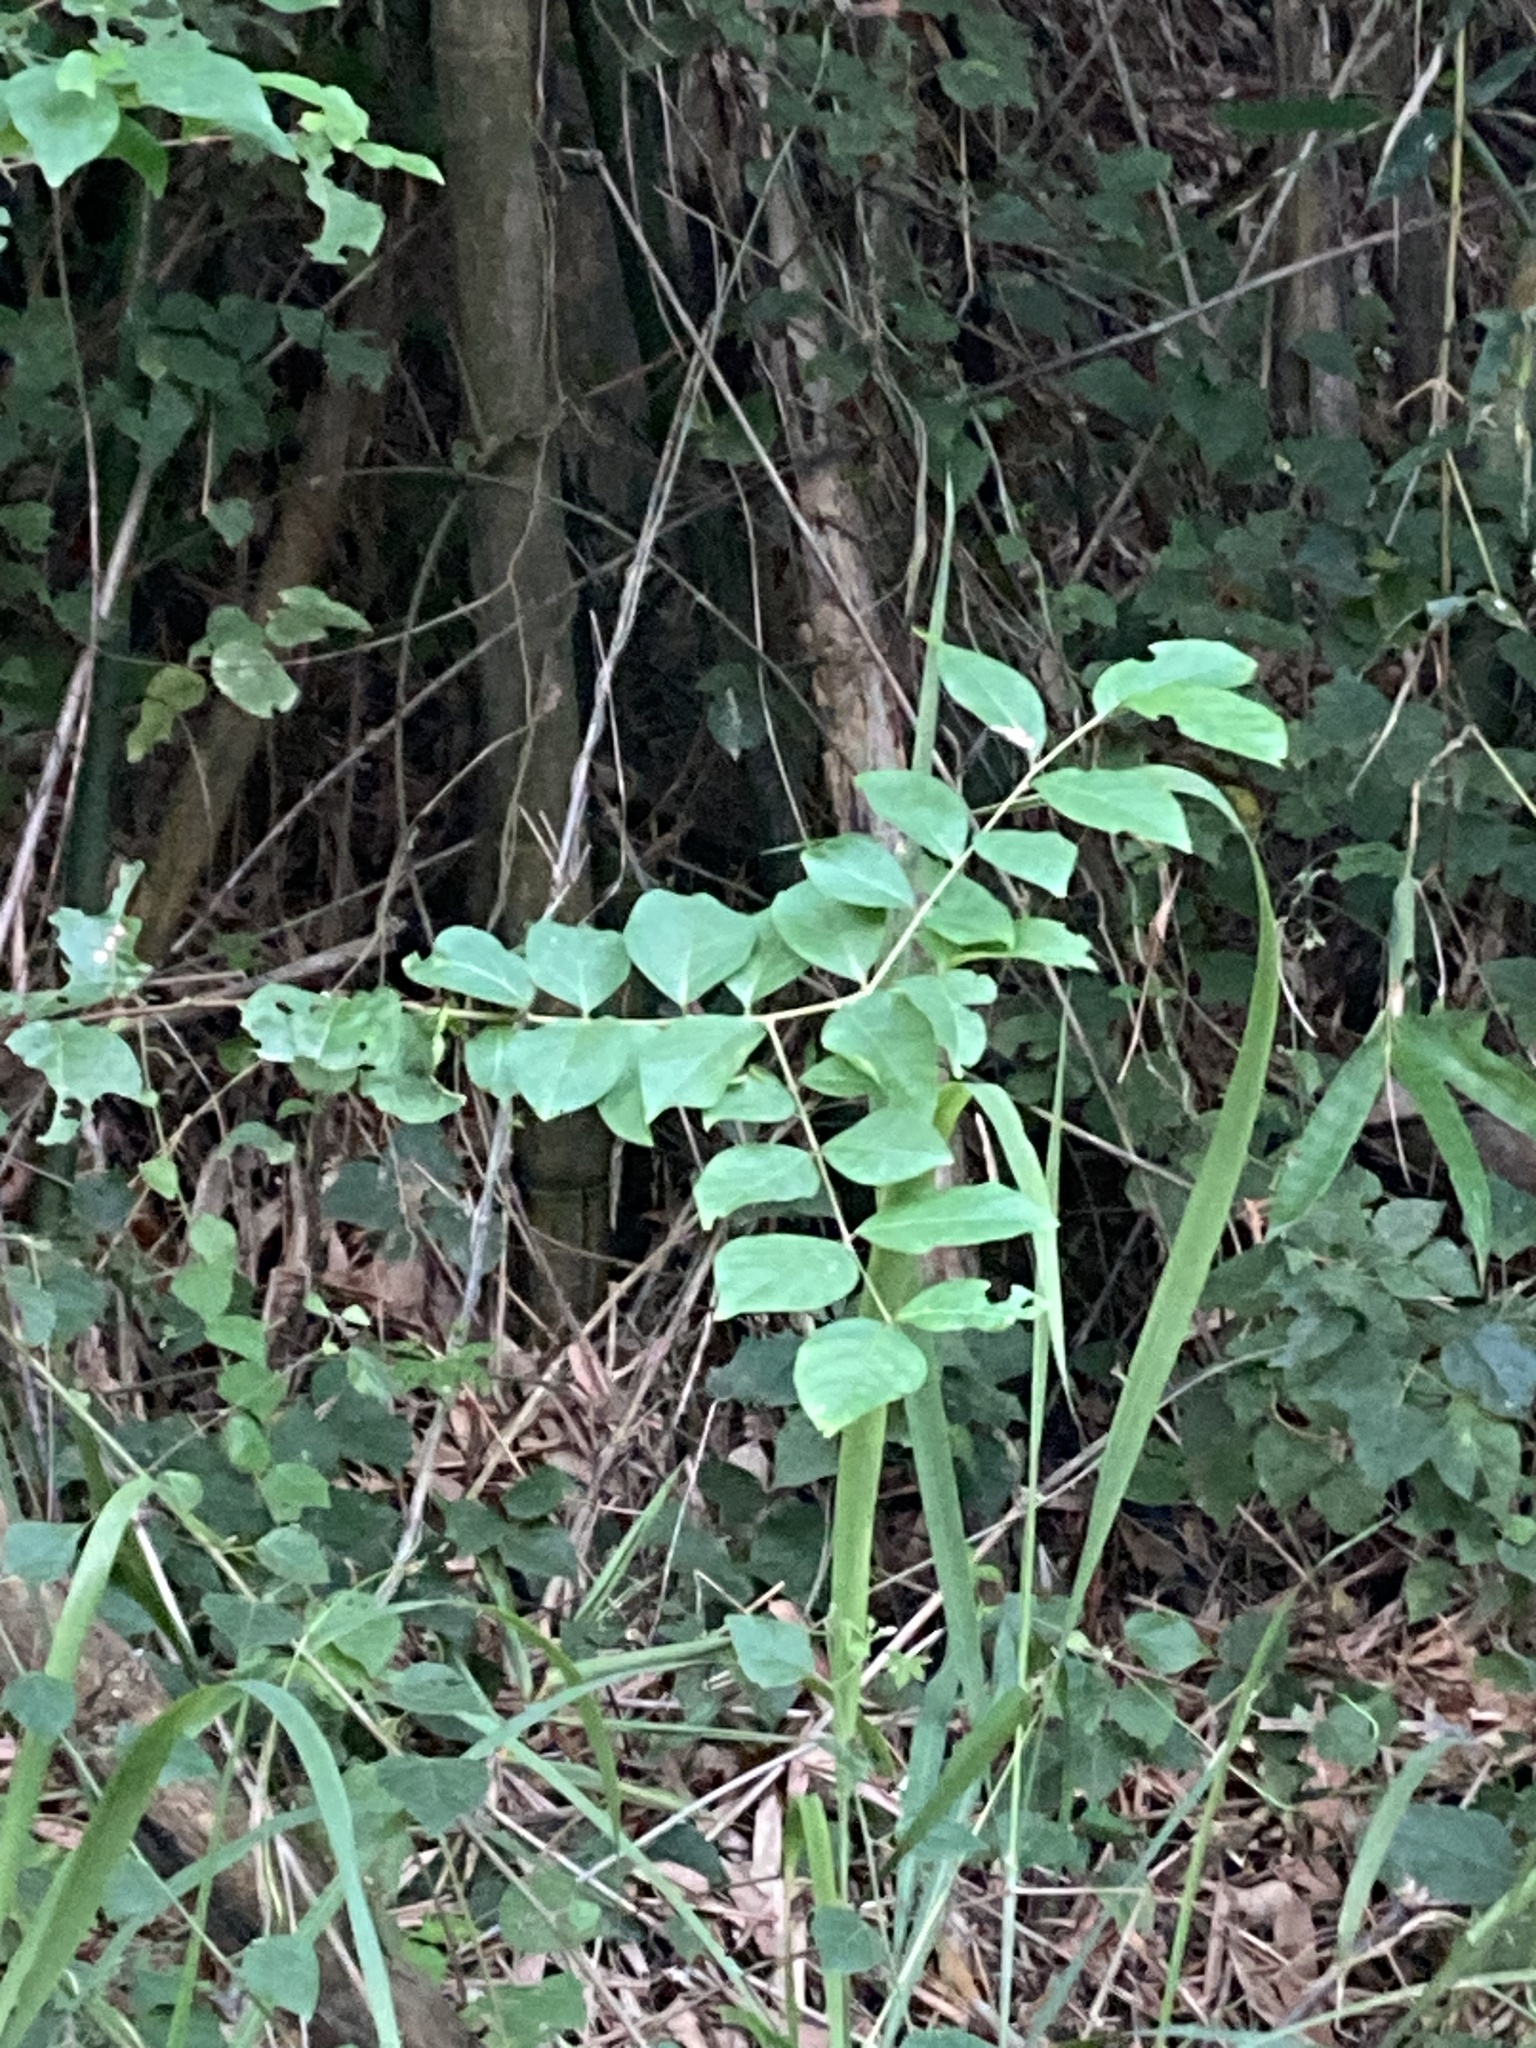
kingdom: Plantae
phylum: Tracheophyta
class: Magnoliopsida
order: Myrtales
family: Lythraceae
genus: Lagerstroemia
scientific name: Lagerstroemia subcostata
